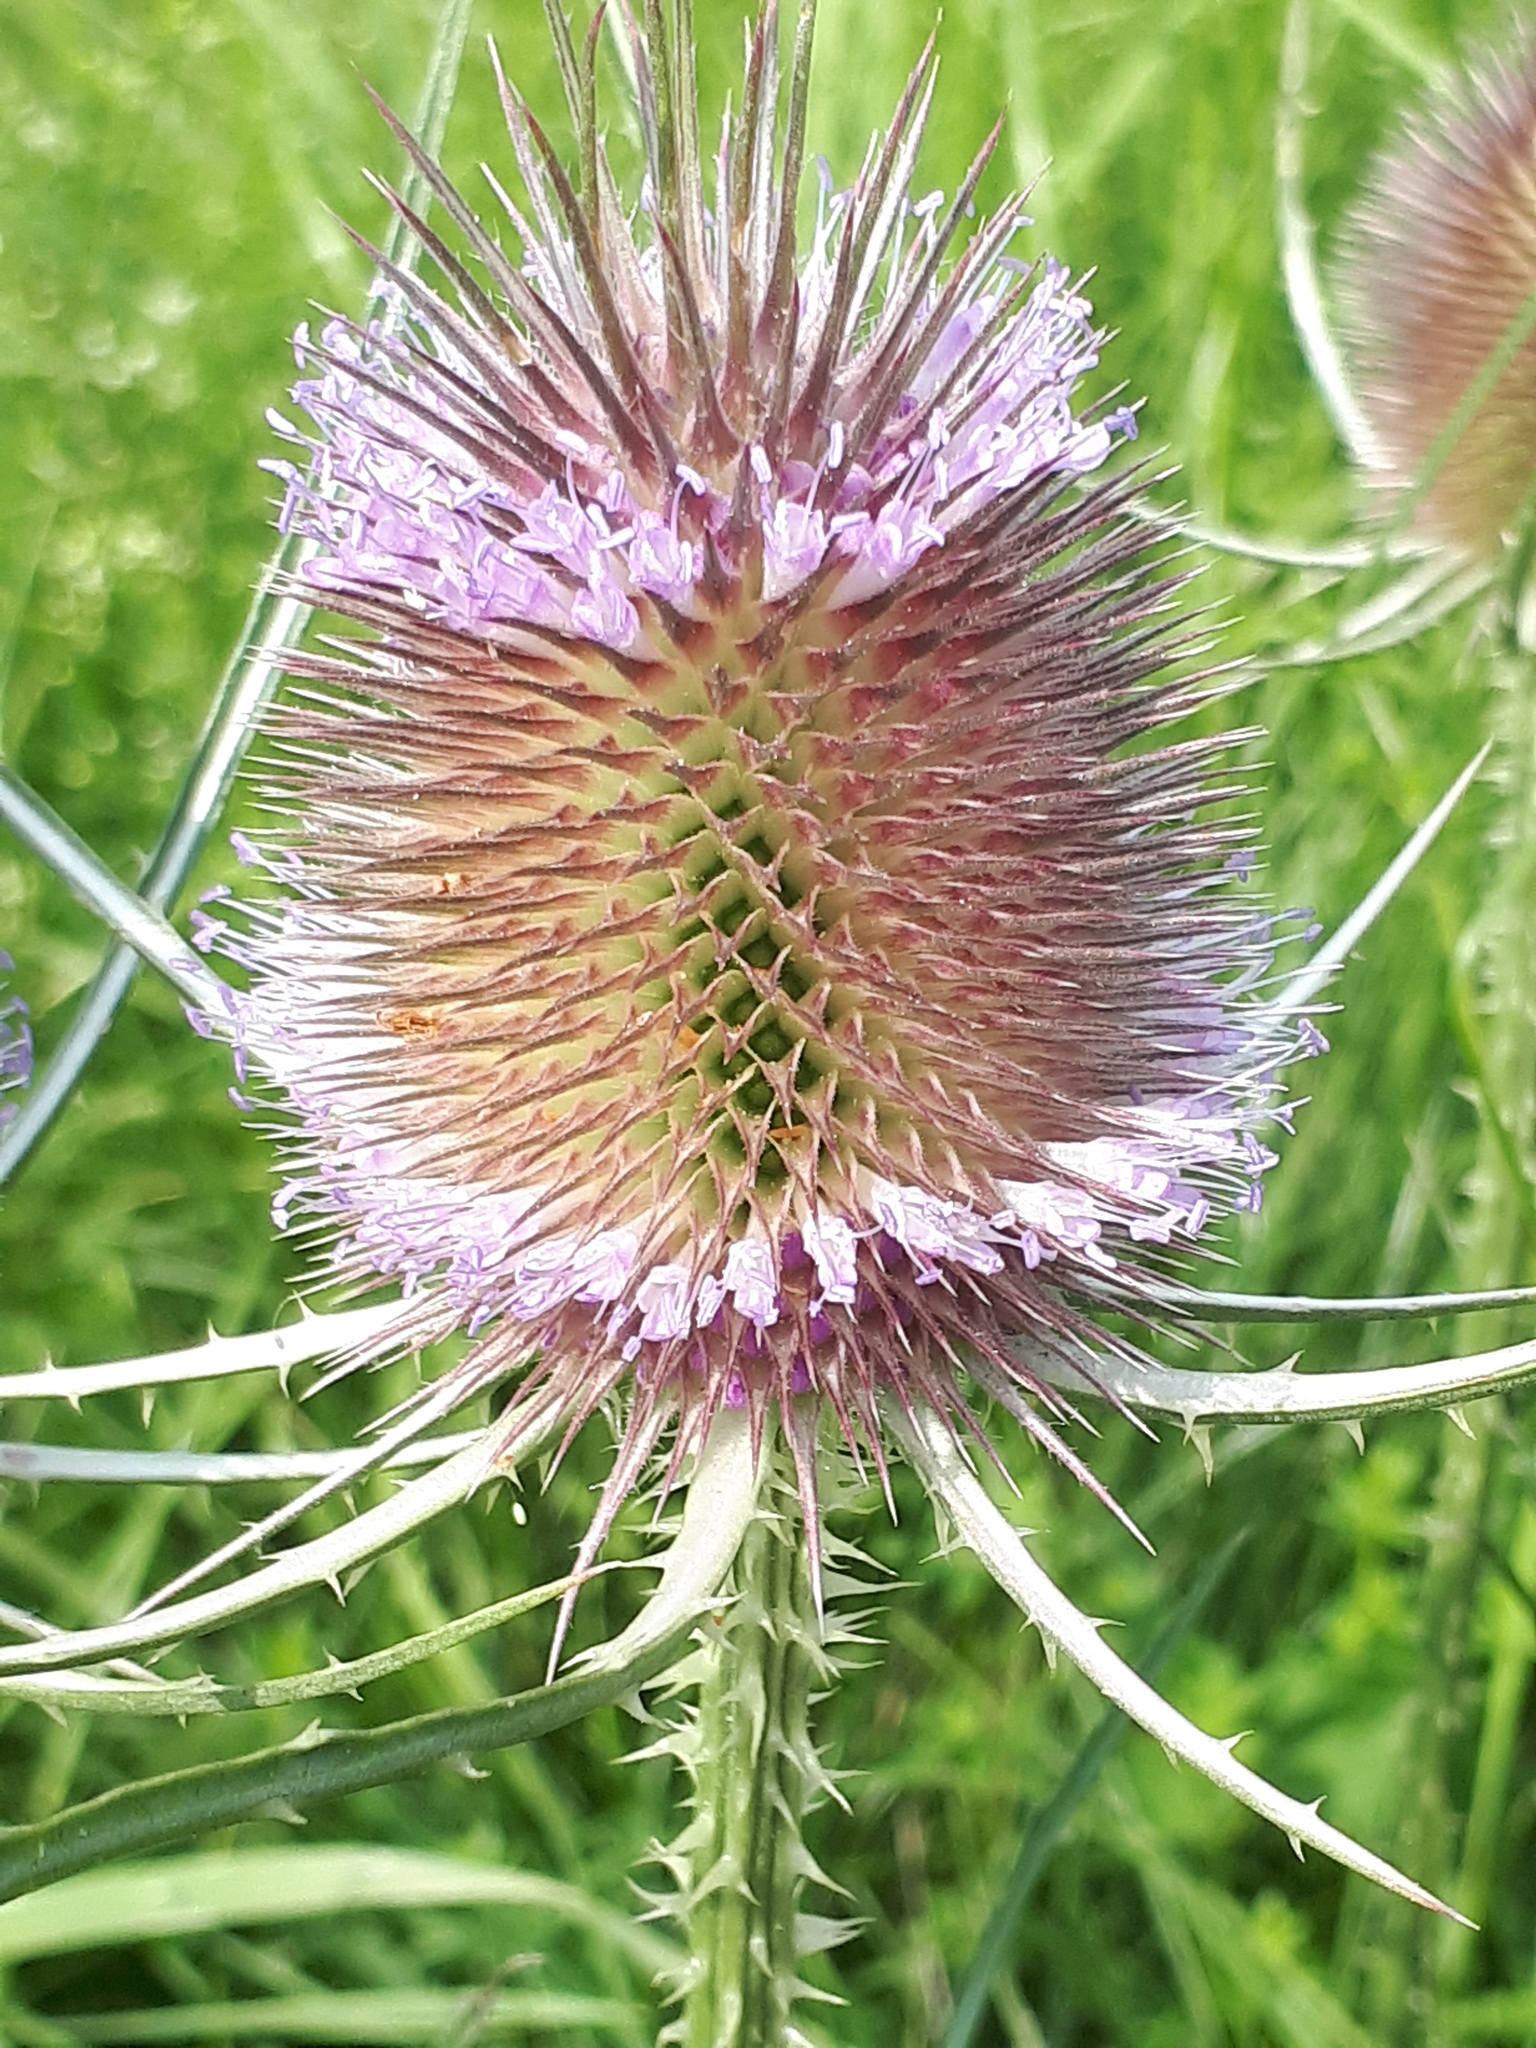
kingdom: Plantae
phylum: Tracheophyta
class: Magnoliopsida
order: Dipsacales
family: Caprifoliaceae
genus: Dipsacus
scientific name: Dipsacus fullonum
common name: Teasel
